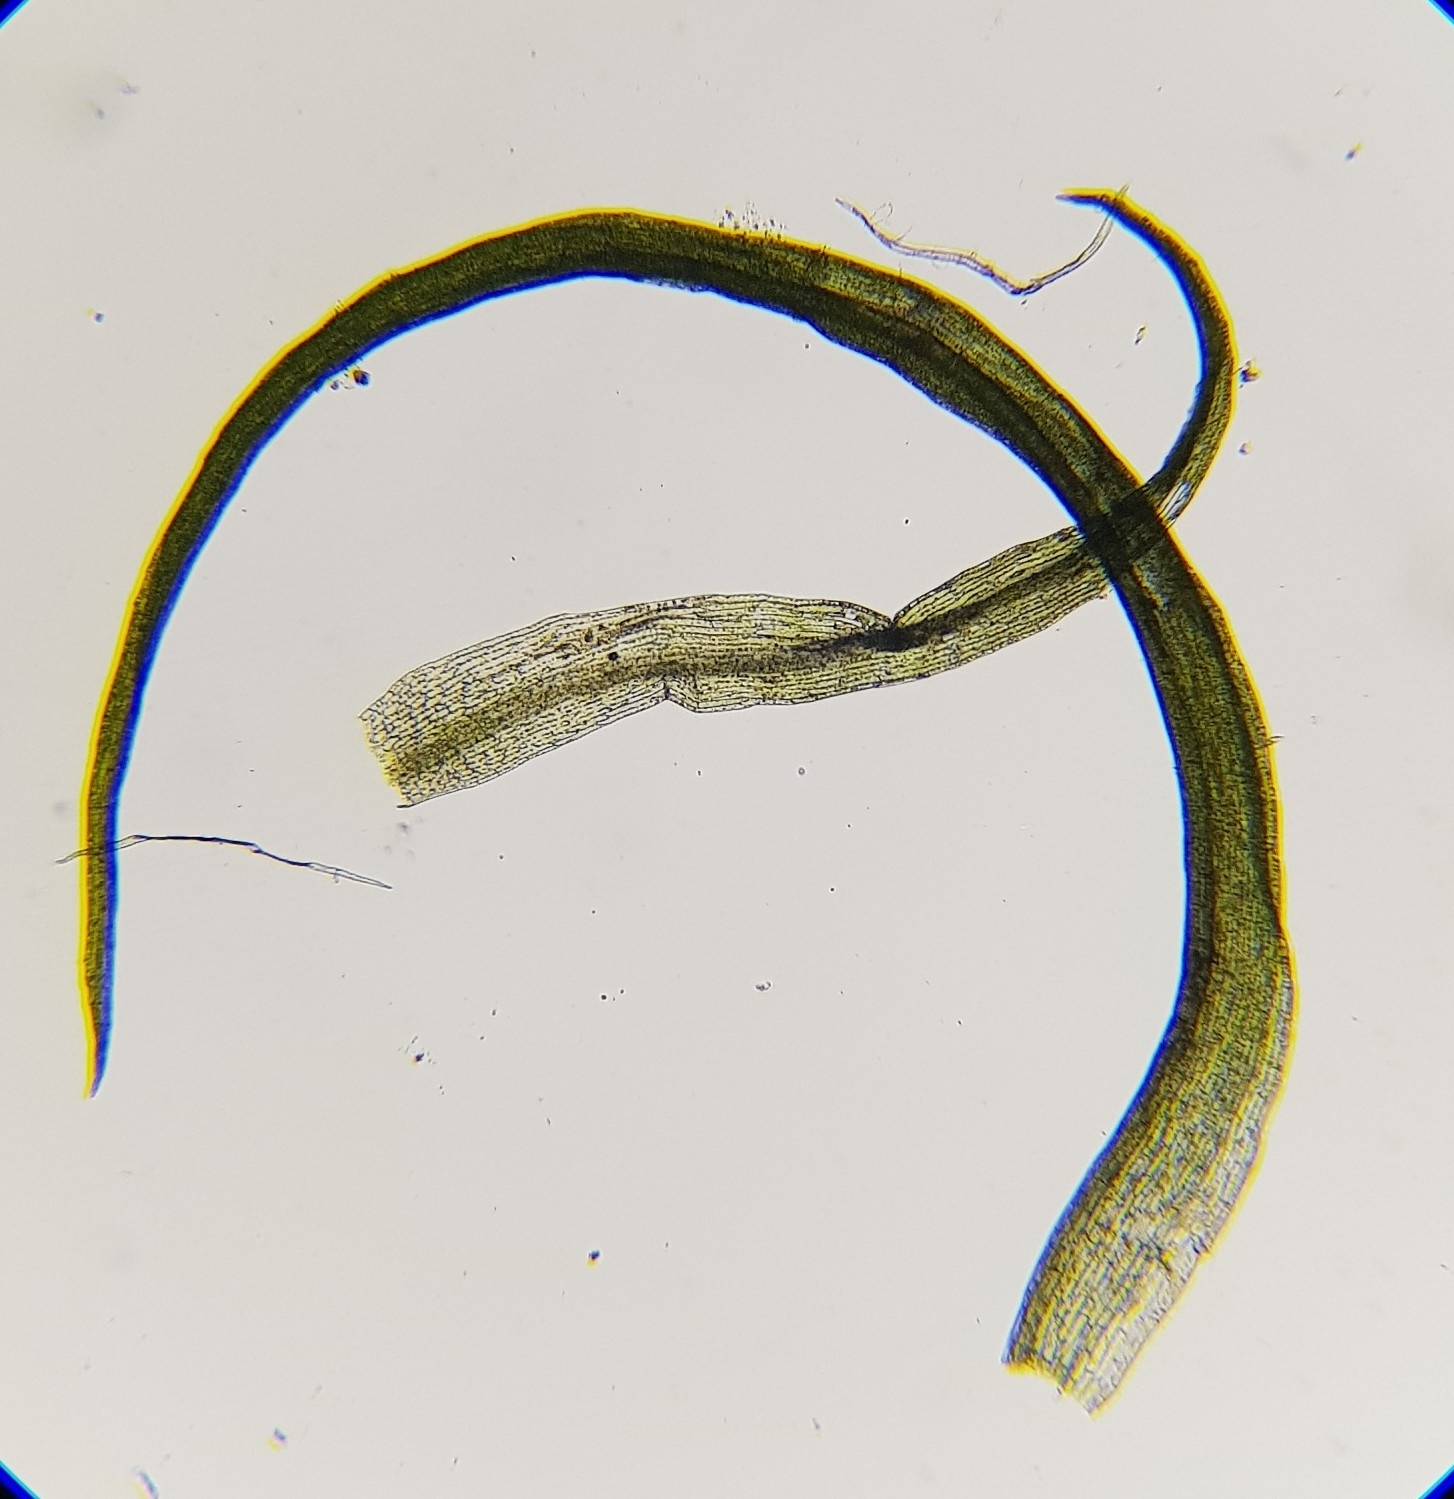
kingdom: Plantae
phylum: Bryophyta
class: Bryopsida
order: Orthodontiales
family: Orthodontiaceae
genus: Orthodontium
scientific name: Orthodontium lineare
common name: Cape thread-moss
